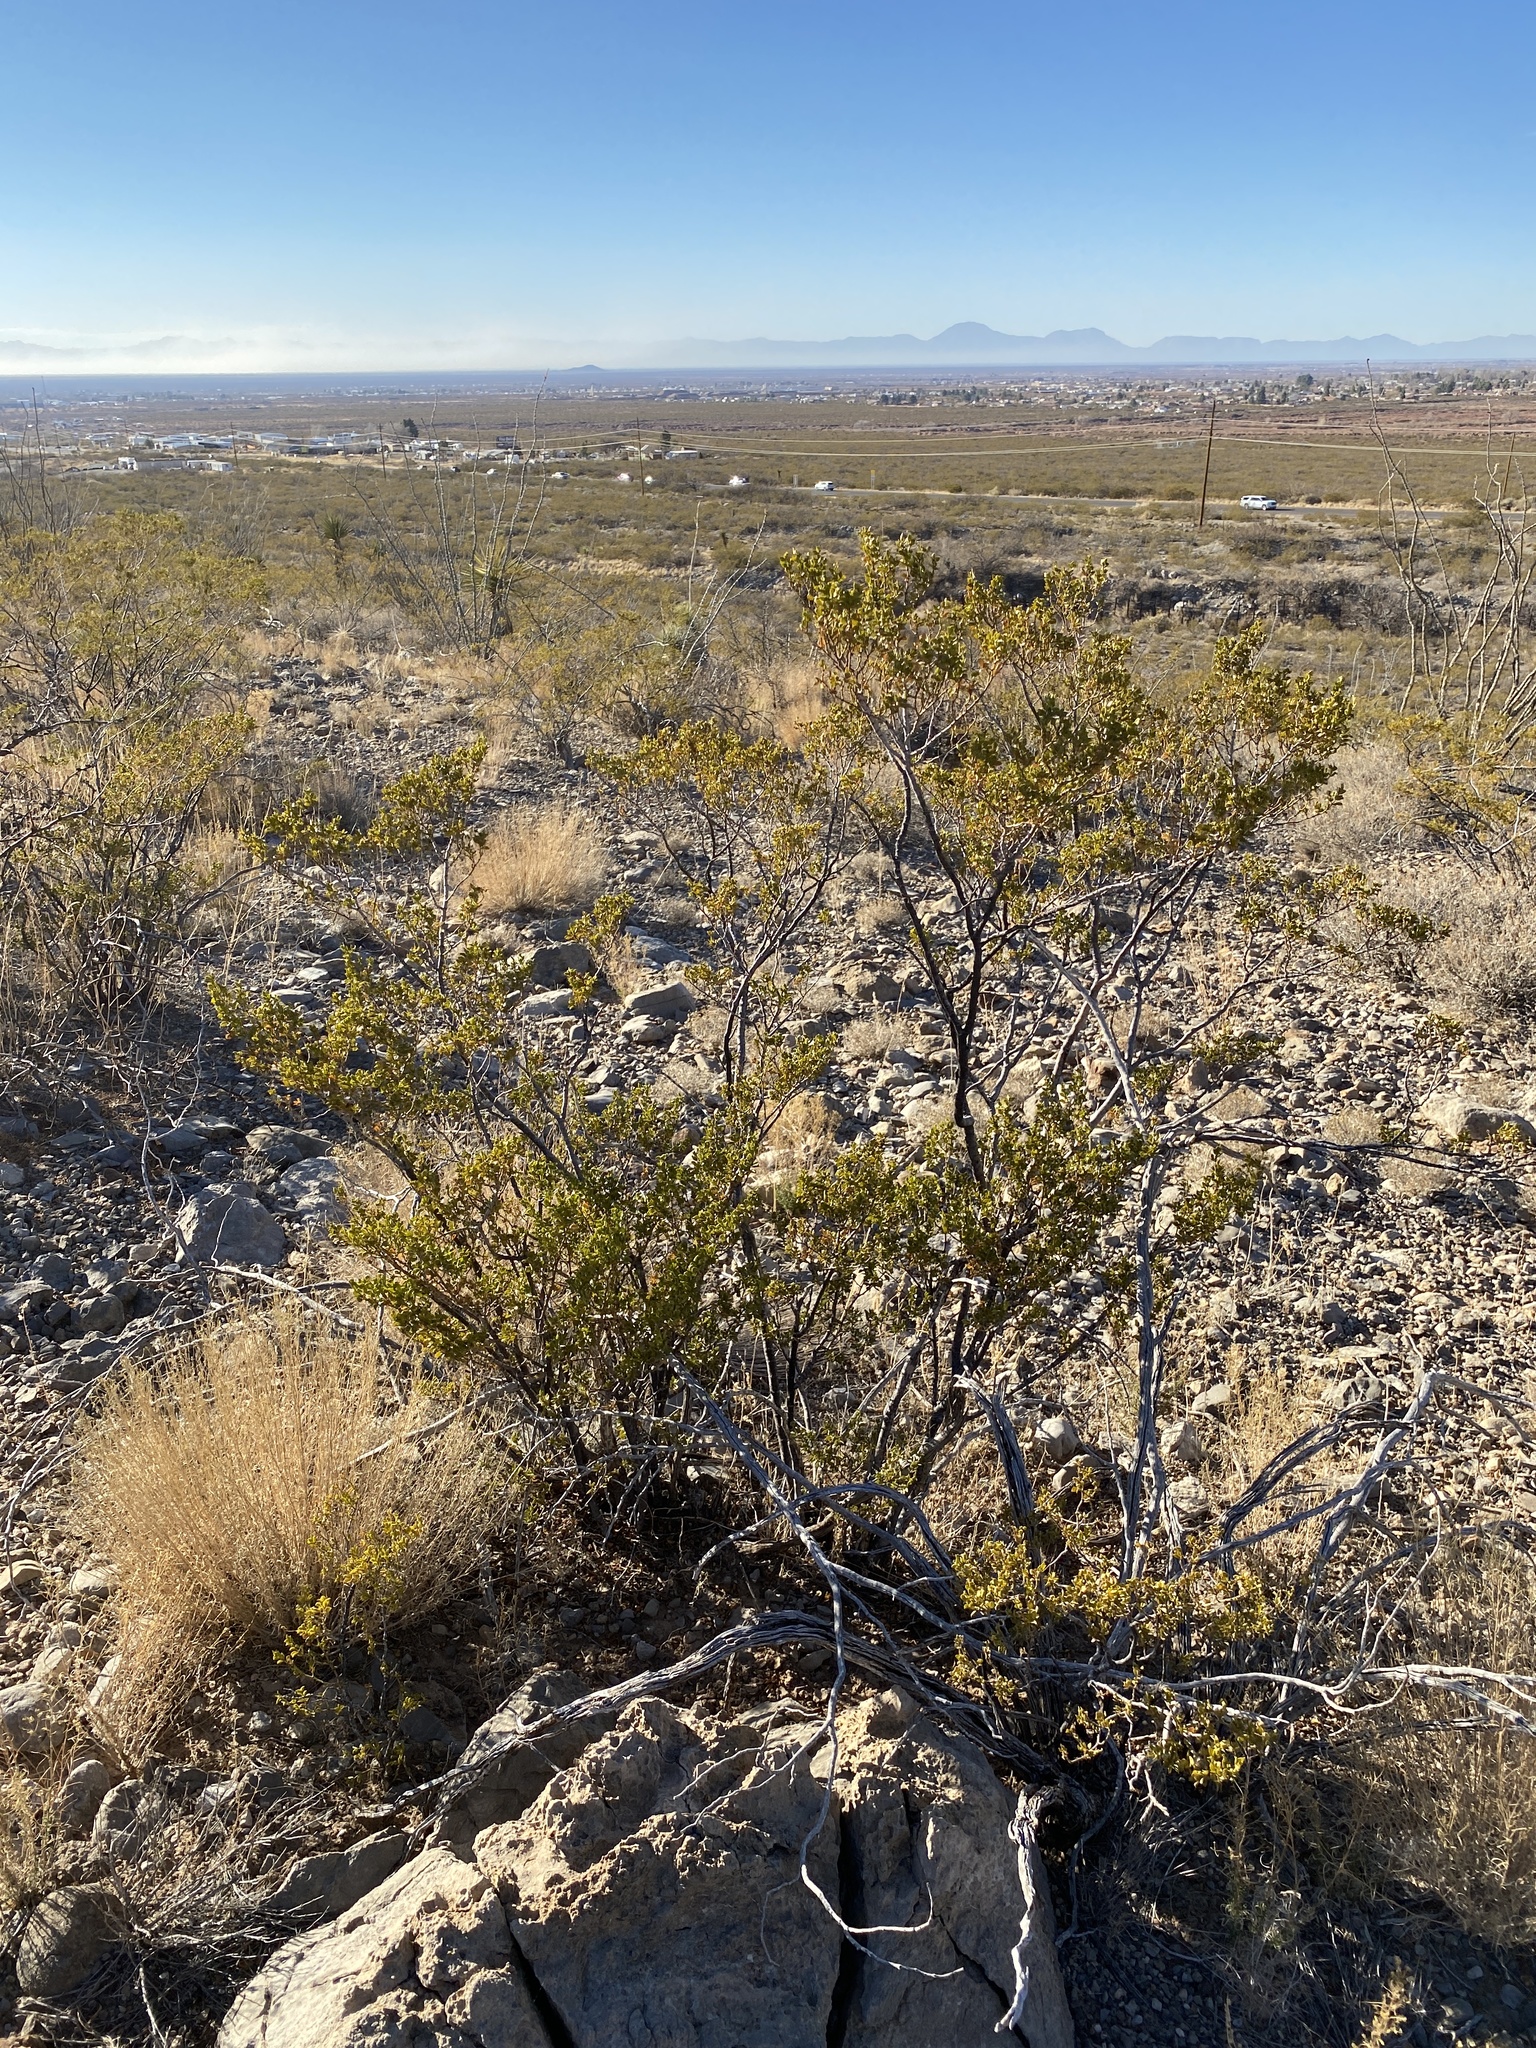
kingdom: Plantae
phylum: Tracheophyta
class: Magnoliopsida
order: Zygophyllales
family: Zygophyllaceae
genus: Larrea
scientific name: Larrea tridentata
